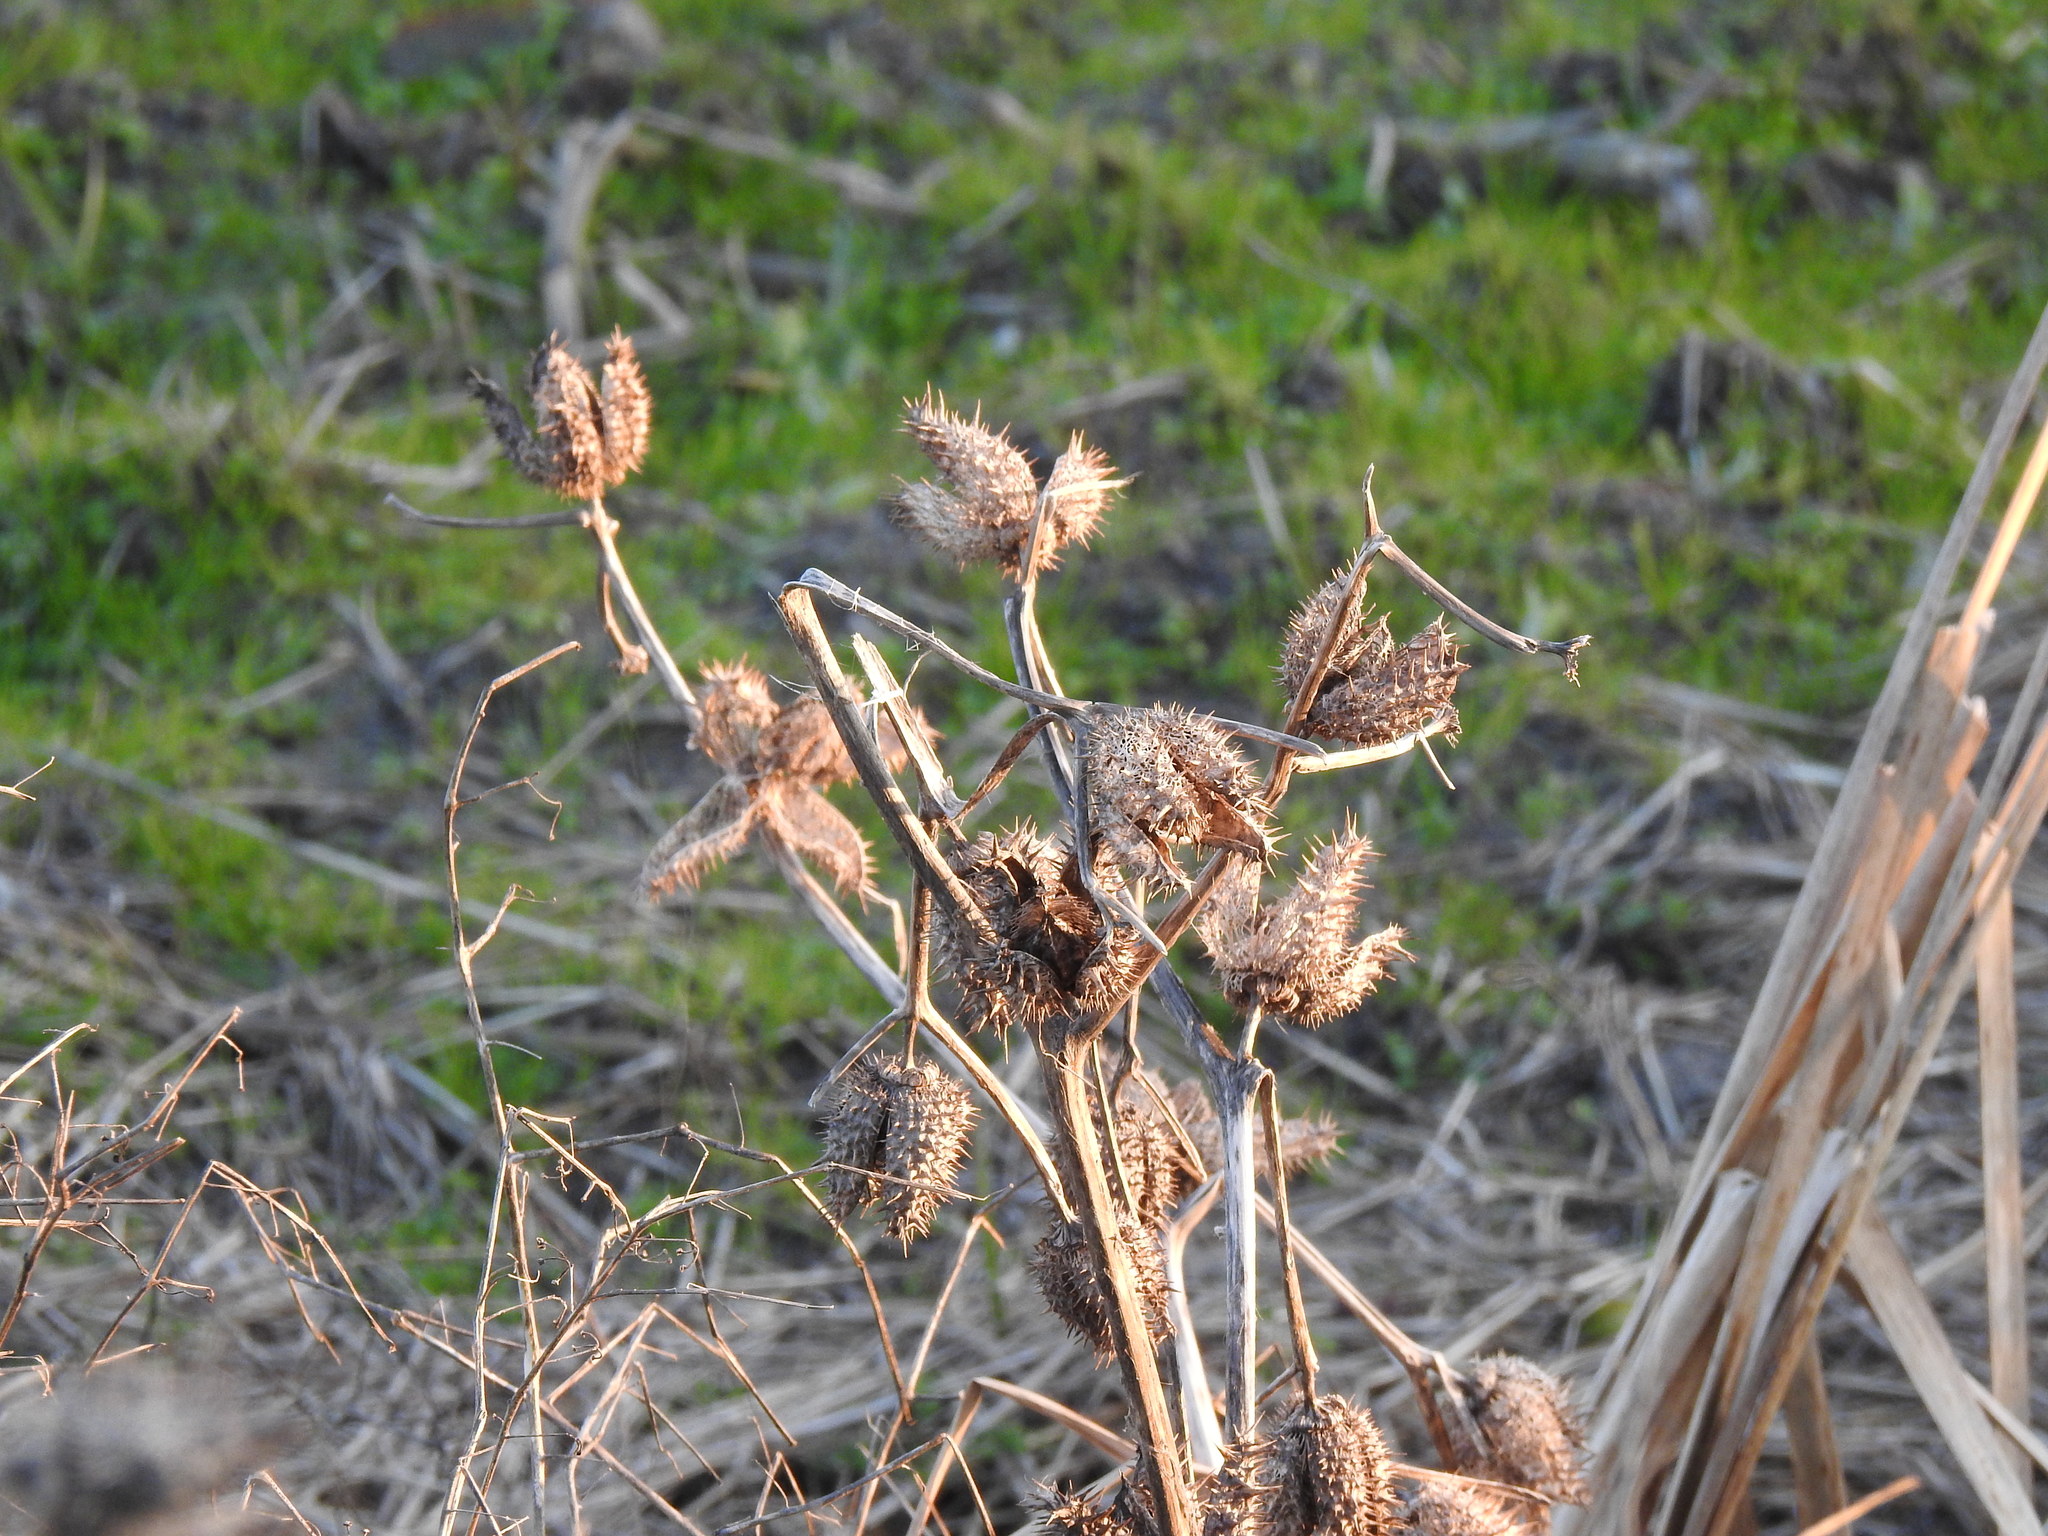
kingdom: Plantae
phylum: Tracheophyta
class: Magnoliopsida
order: Solanales
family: Solanaceae
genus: Datura
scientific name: Datura stramonium
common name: Thorn-apple
